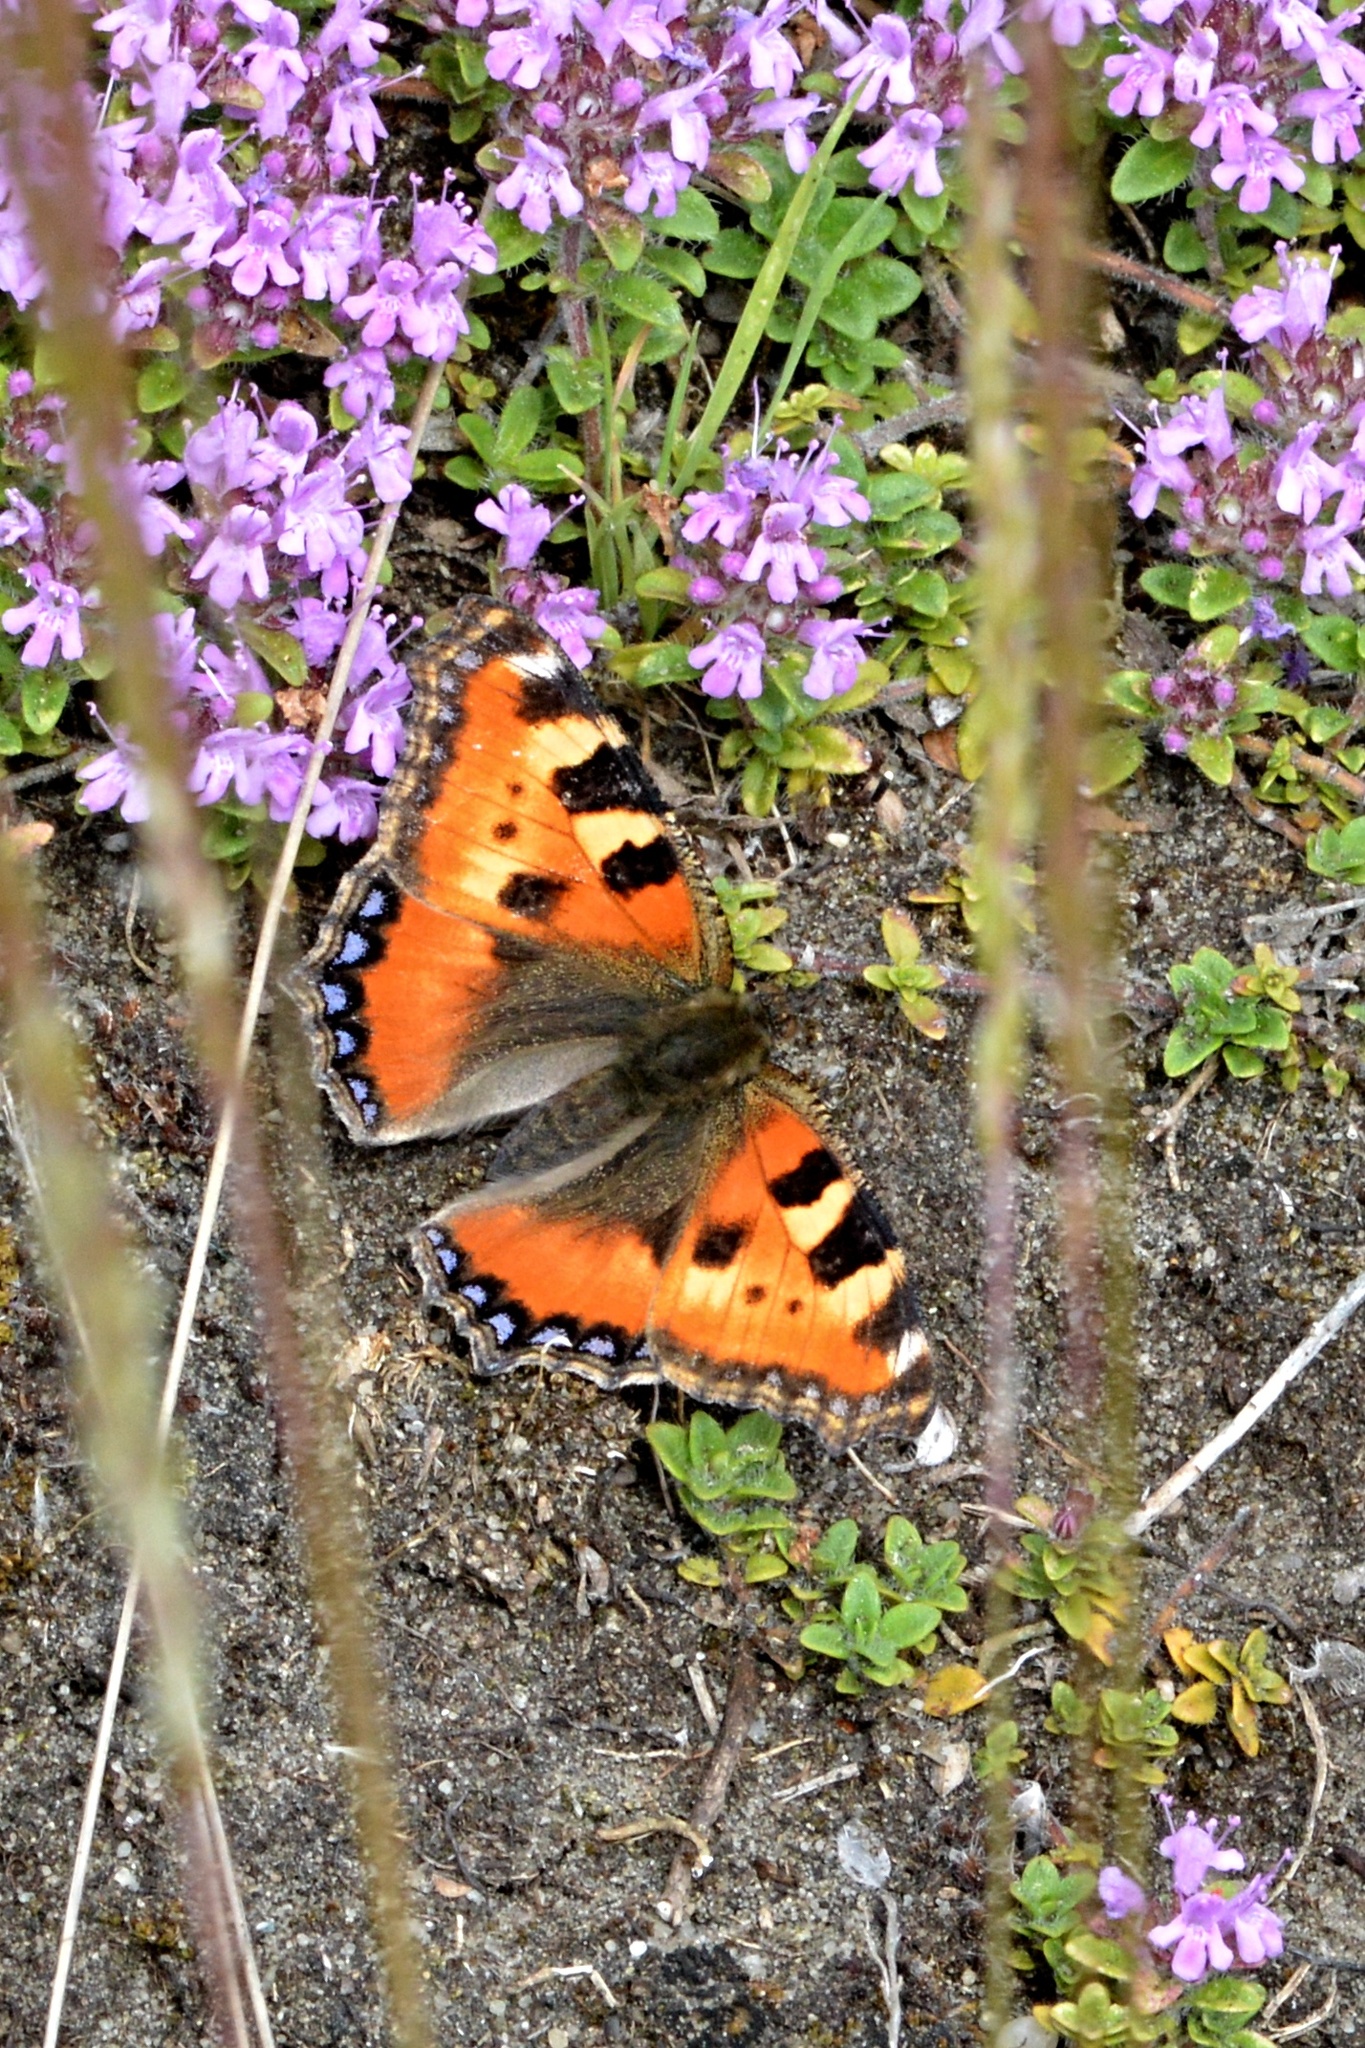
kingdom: Animalia
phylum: Arthropoda
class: Insecta
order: Lepidoptera
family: Nymphalidae
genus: Aglais
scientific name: Aglais urticae
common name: Small tortoiseshell
